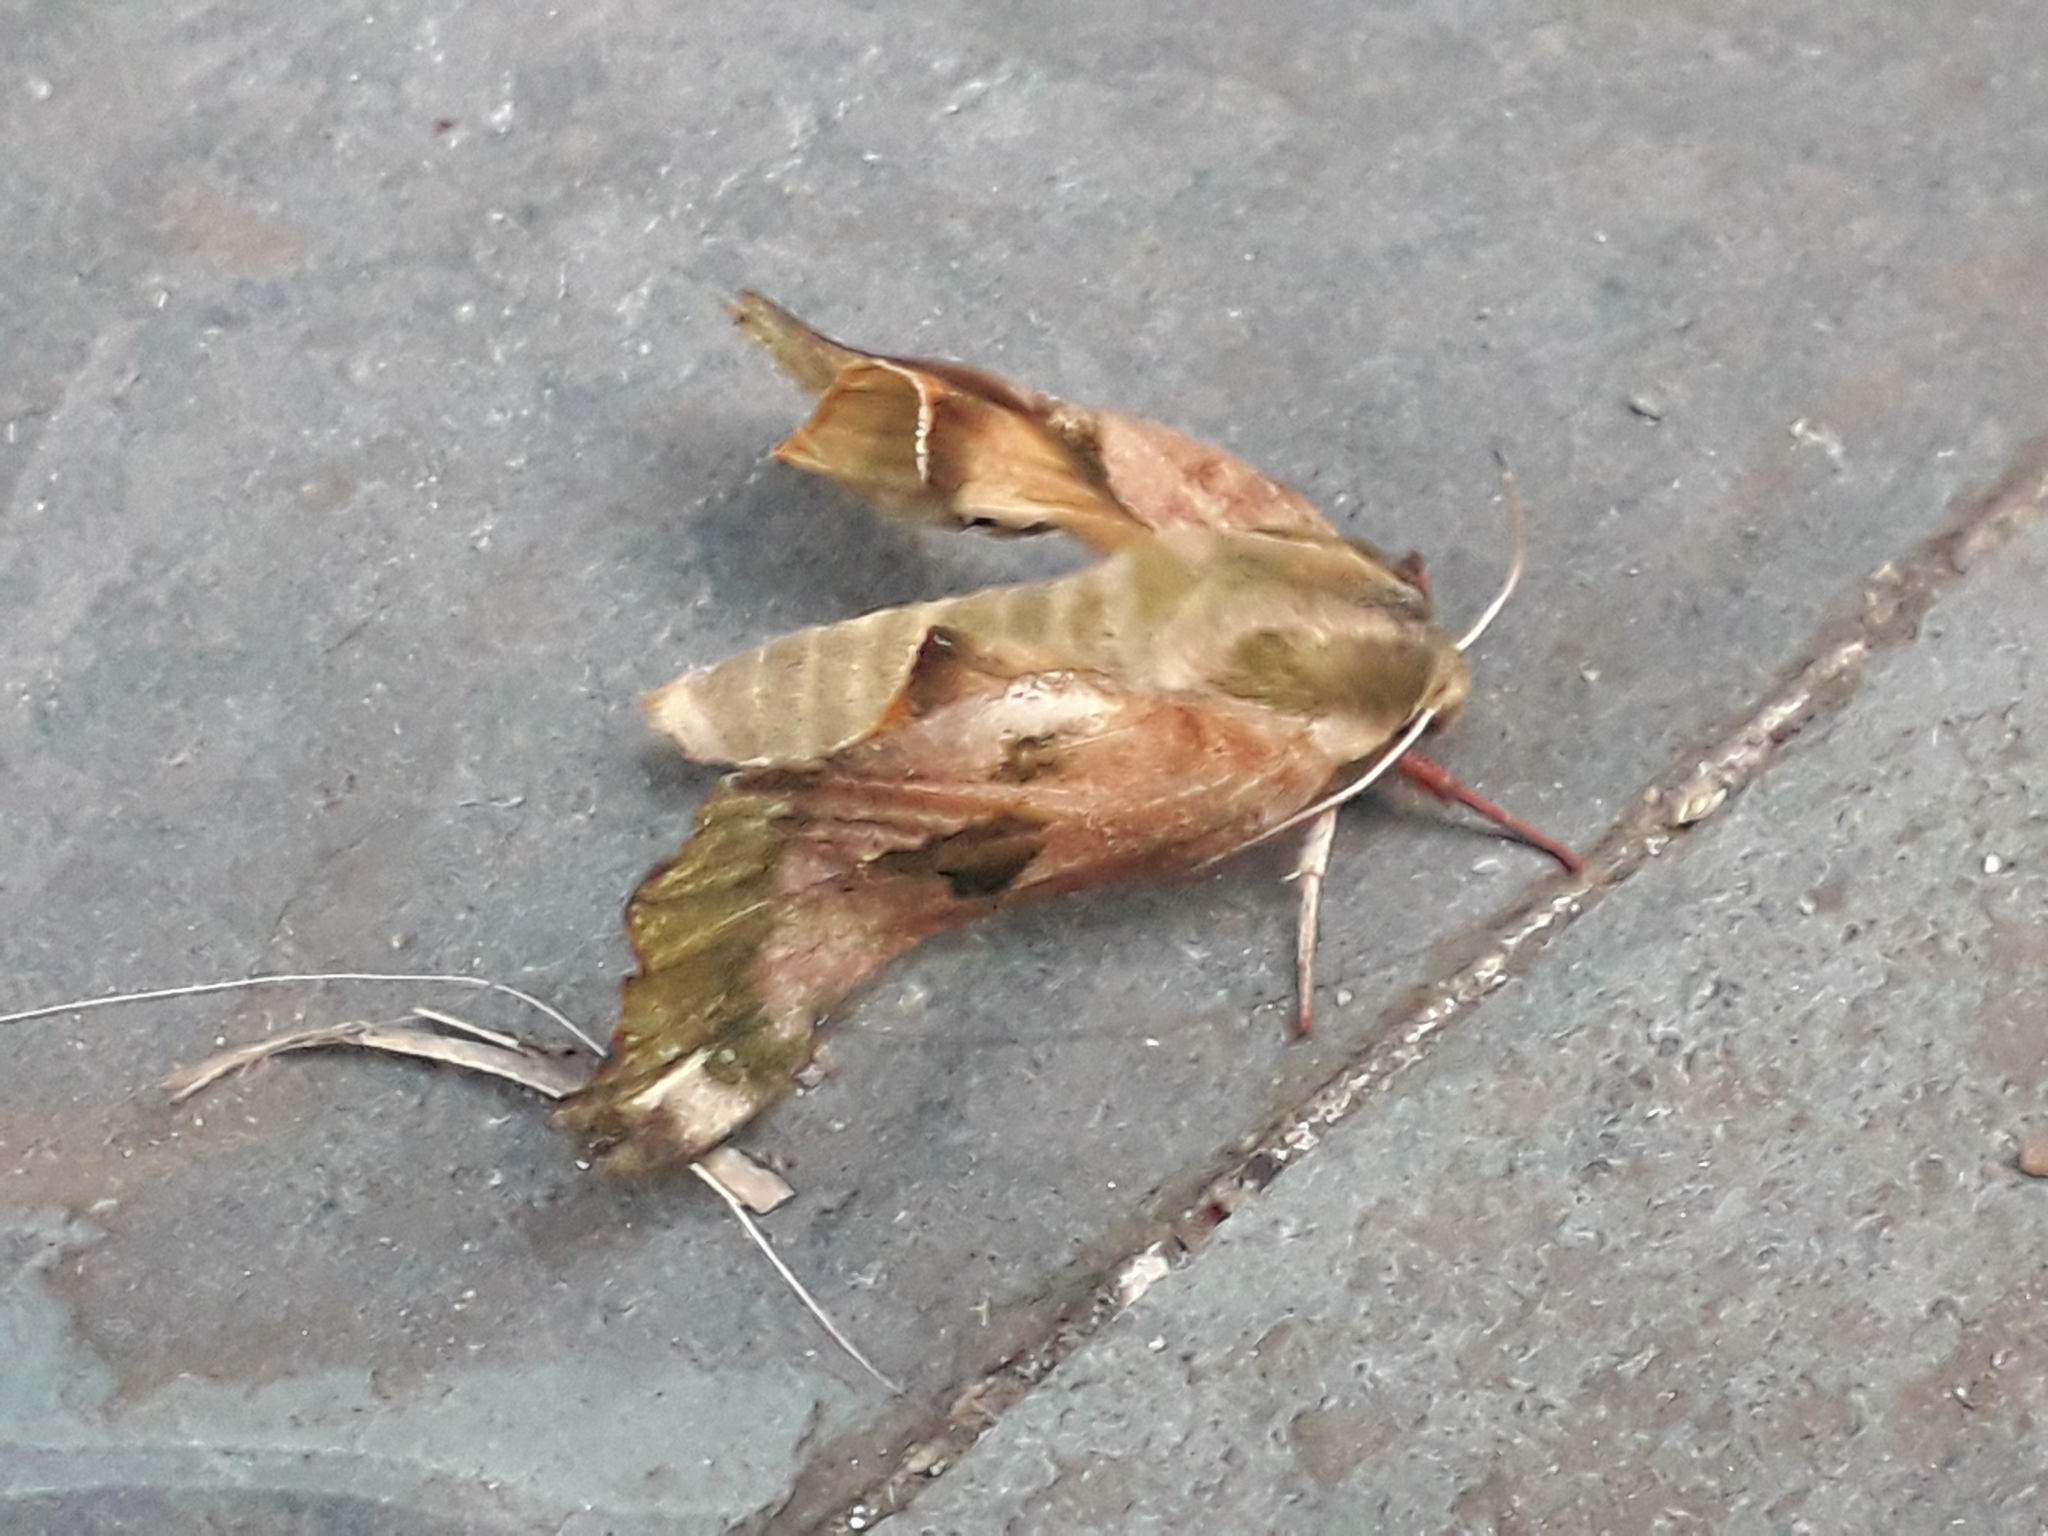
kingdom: Animalia
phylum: Arthropoda
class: Insecta
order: Lepidoptera
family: Sphingidae
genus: Mimas
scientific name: Mimas tiliae
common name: Lime hawk-moth
